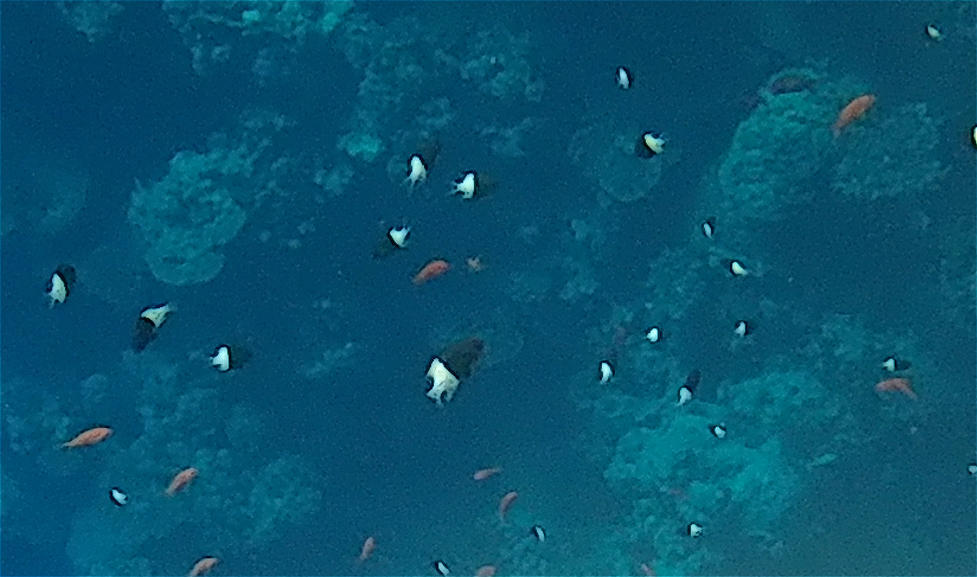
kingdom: Animalia
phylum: Chordata
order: Perciformes
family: Pomacentridae
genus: Chromis
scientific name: Chromis dimidiata
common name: Half-and-half chromis
